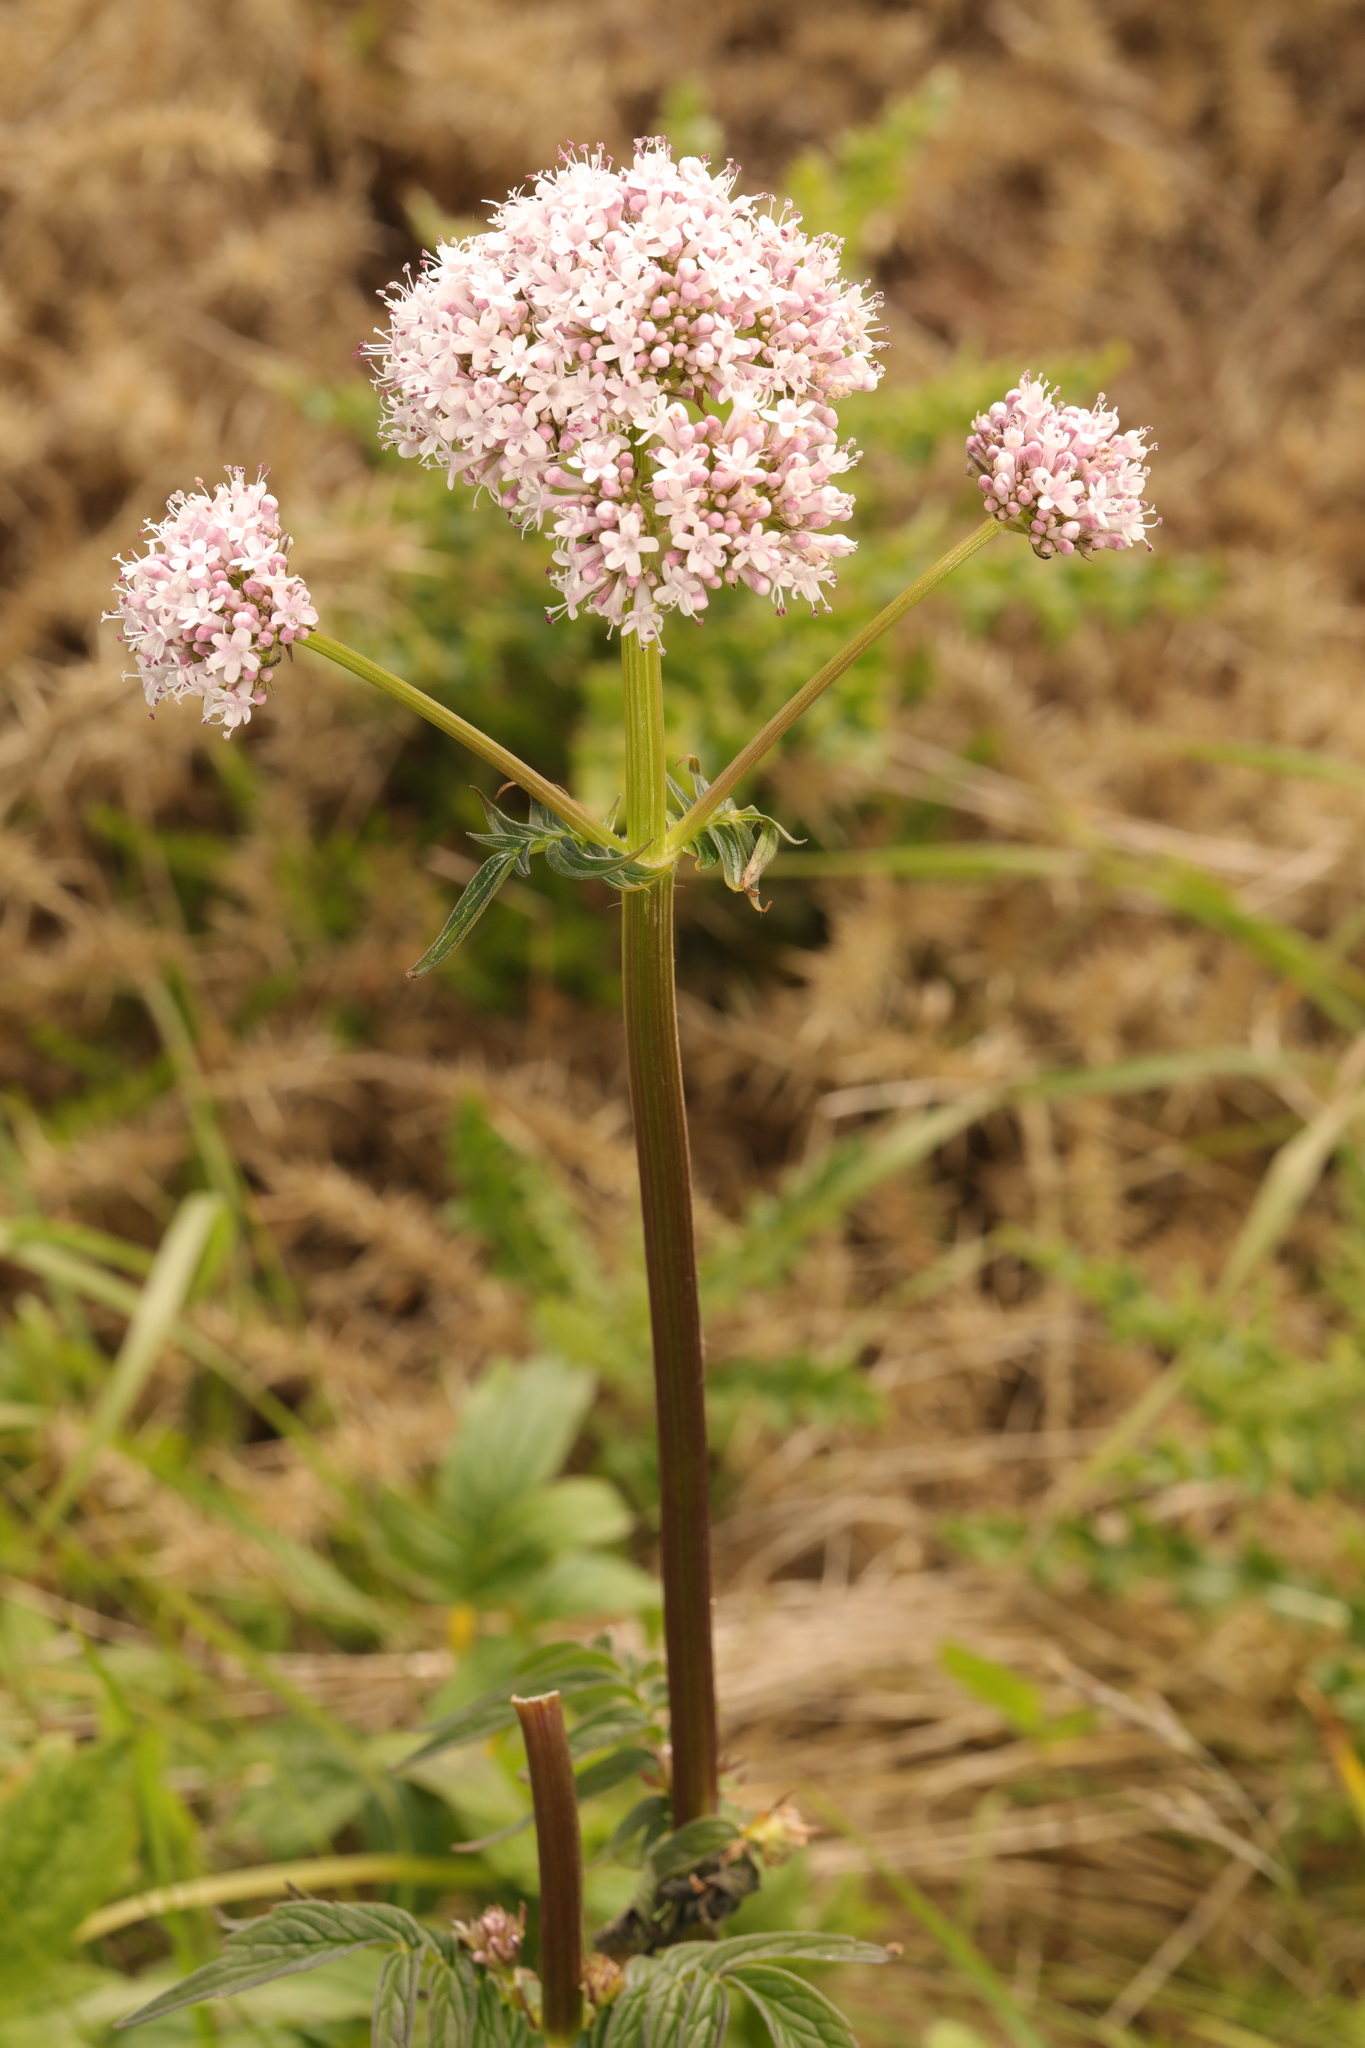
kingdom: Plantae
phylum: Tracheophyta
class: Magnoliopsida
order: Dipsacales
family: Caprifoliaceae
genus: Valeriana
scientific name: Valeriana officinalis
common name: Common valerian
